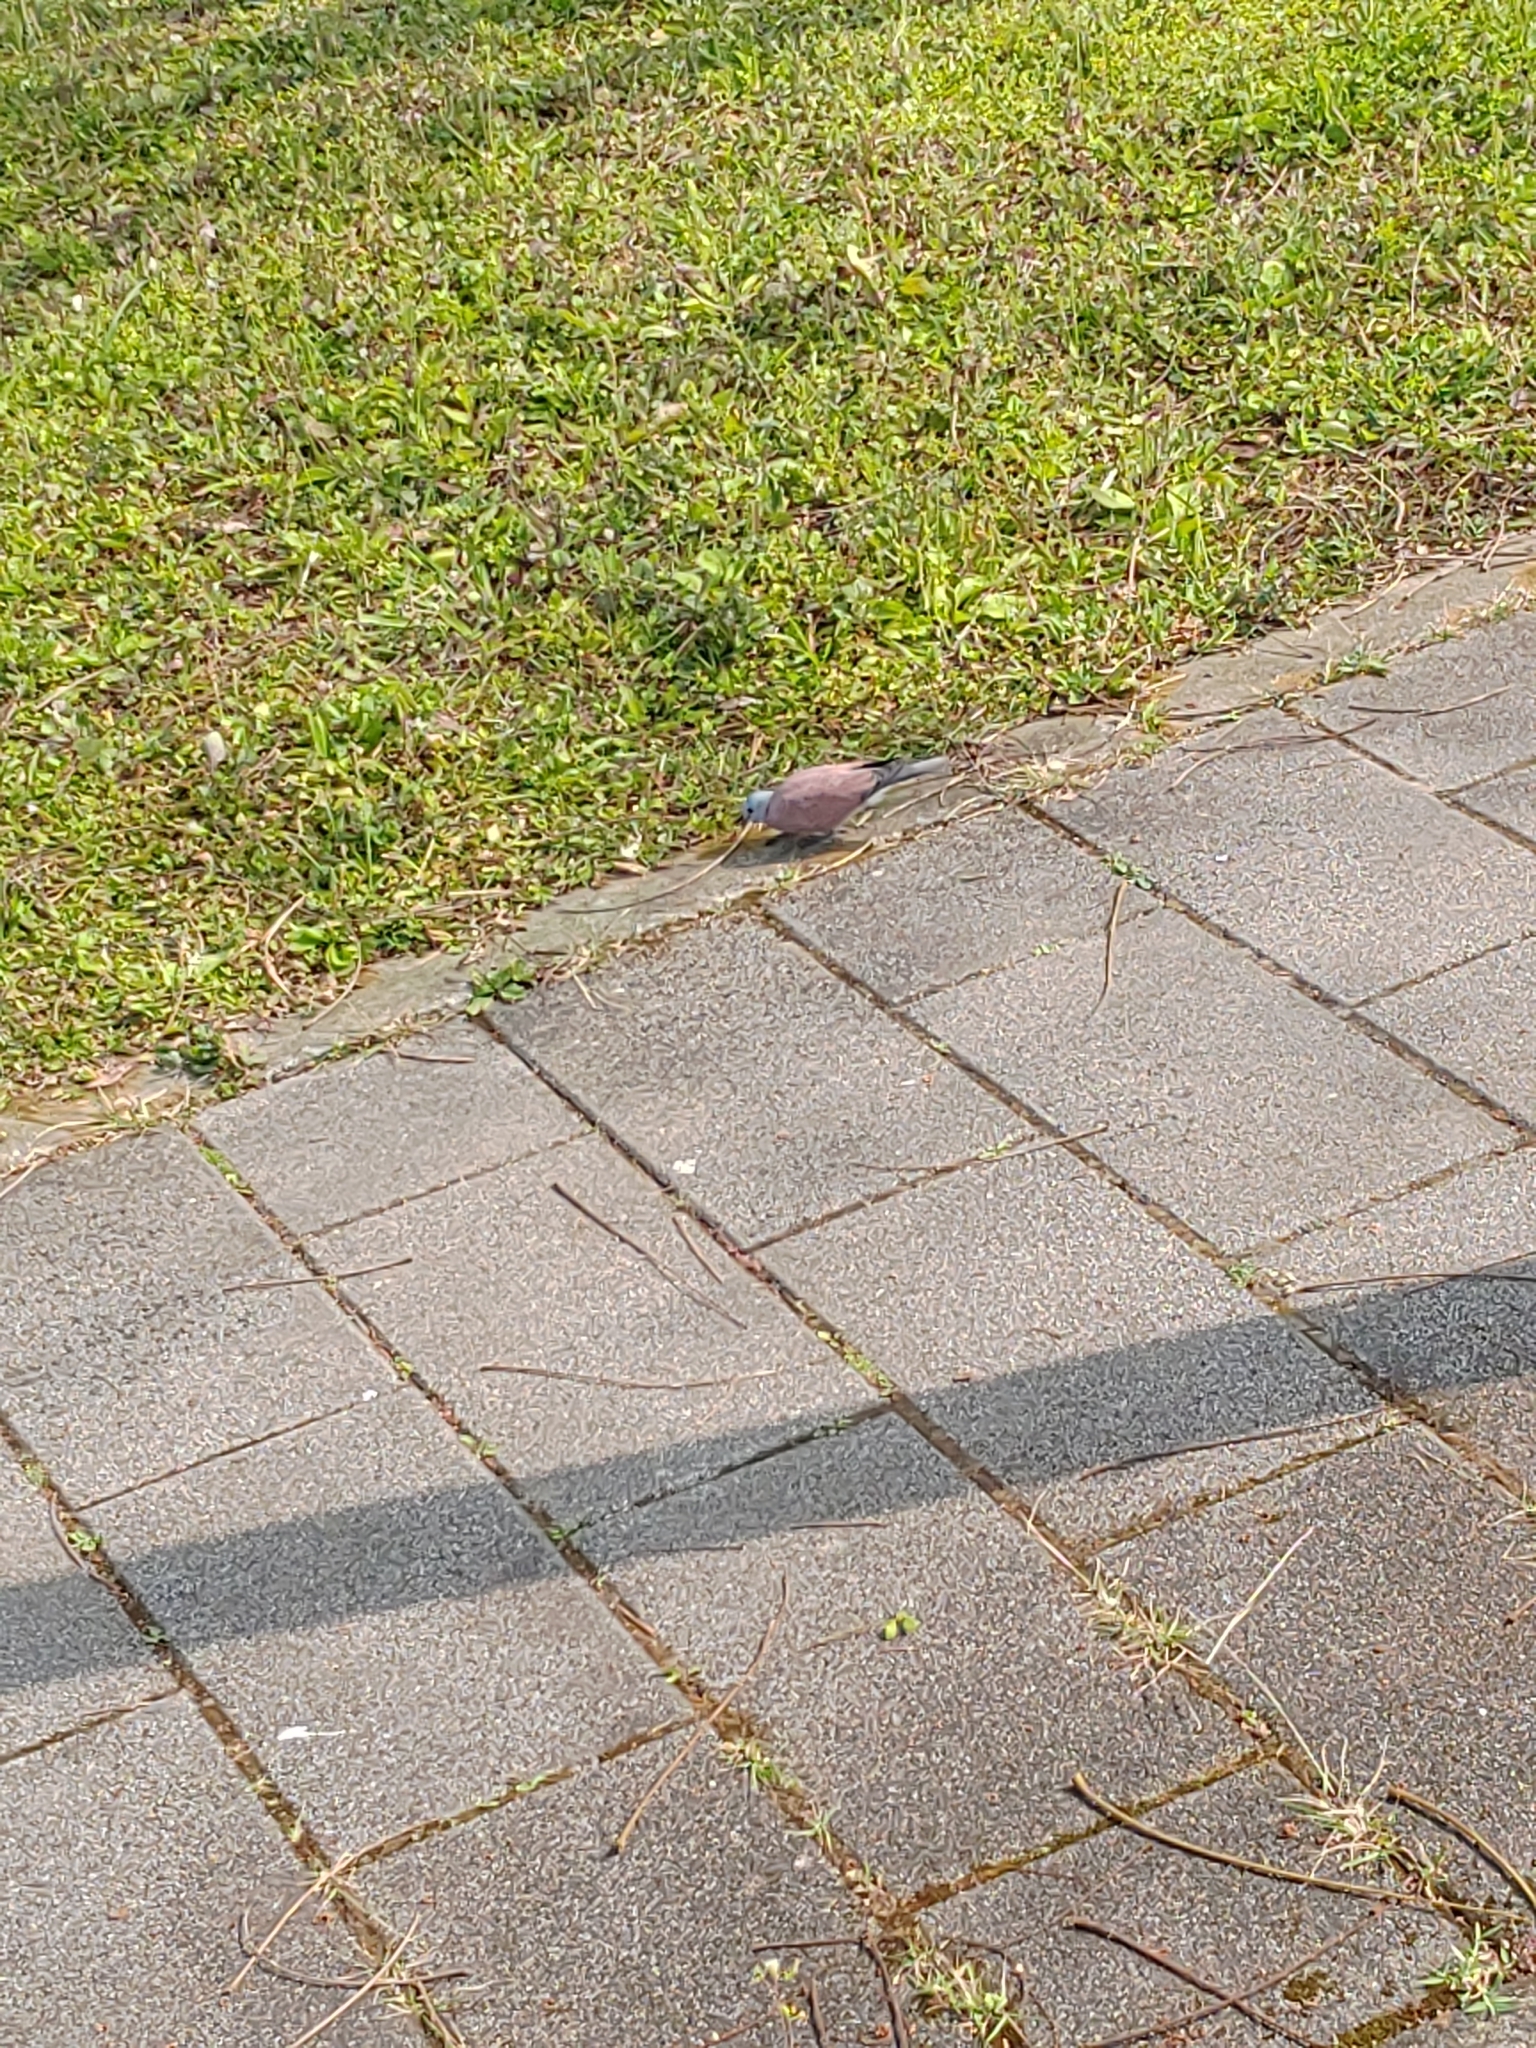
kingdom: Animalia
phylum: Chordata
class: Aves
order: Columbiformes
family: Columbidae
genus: Streptopelia
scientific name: Streptopelia tranquebarica
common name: Red turtle dove
